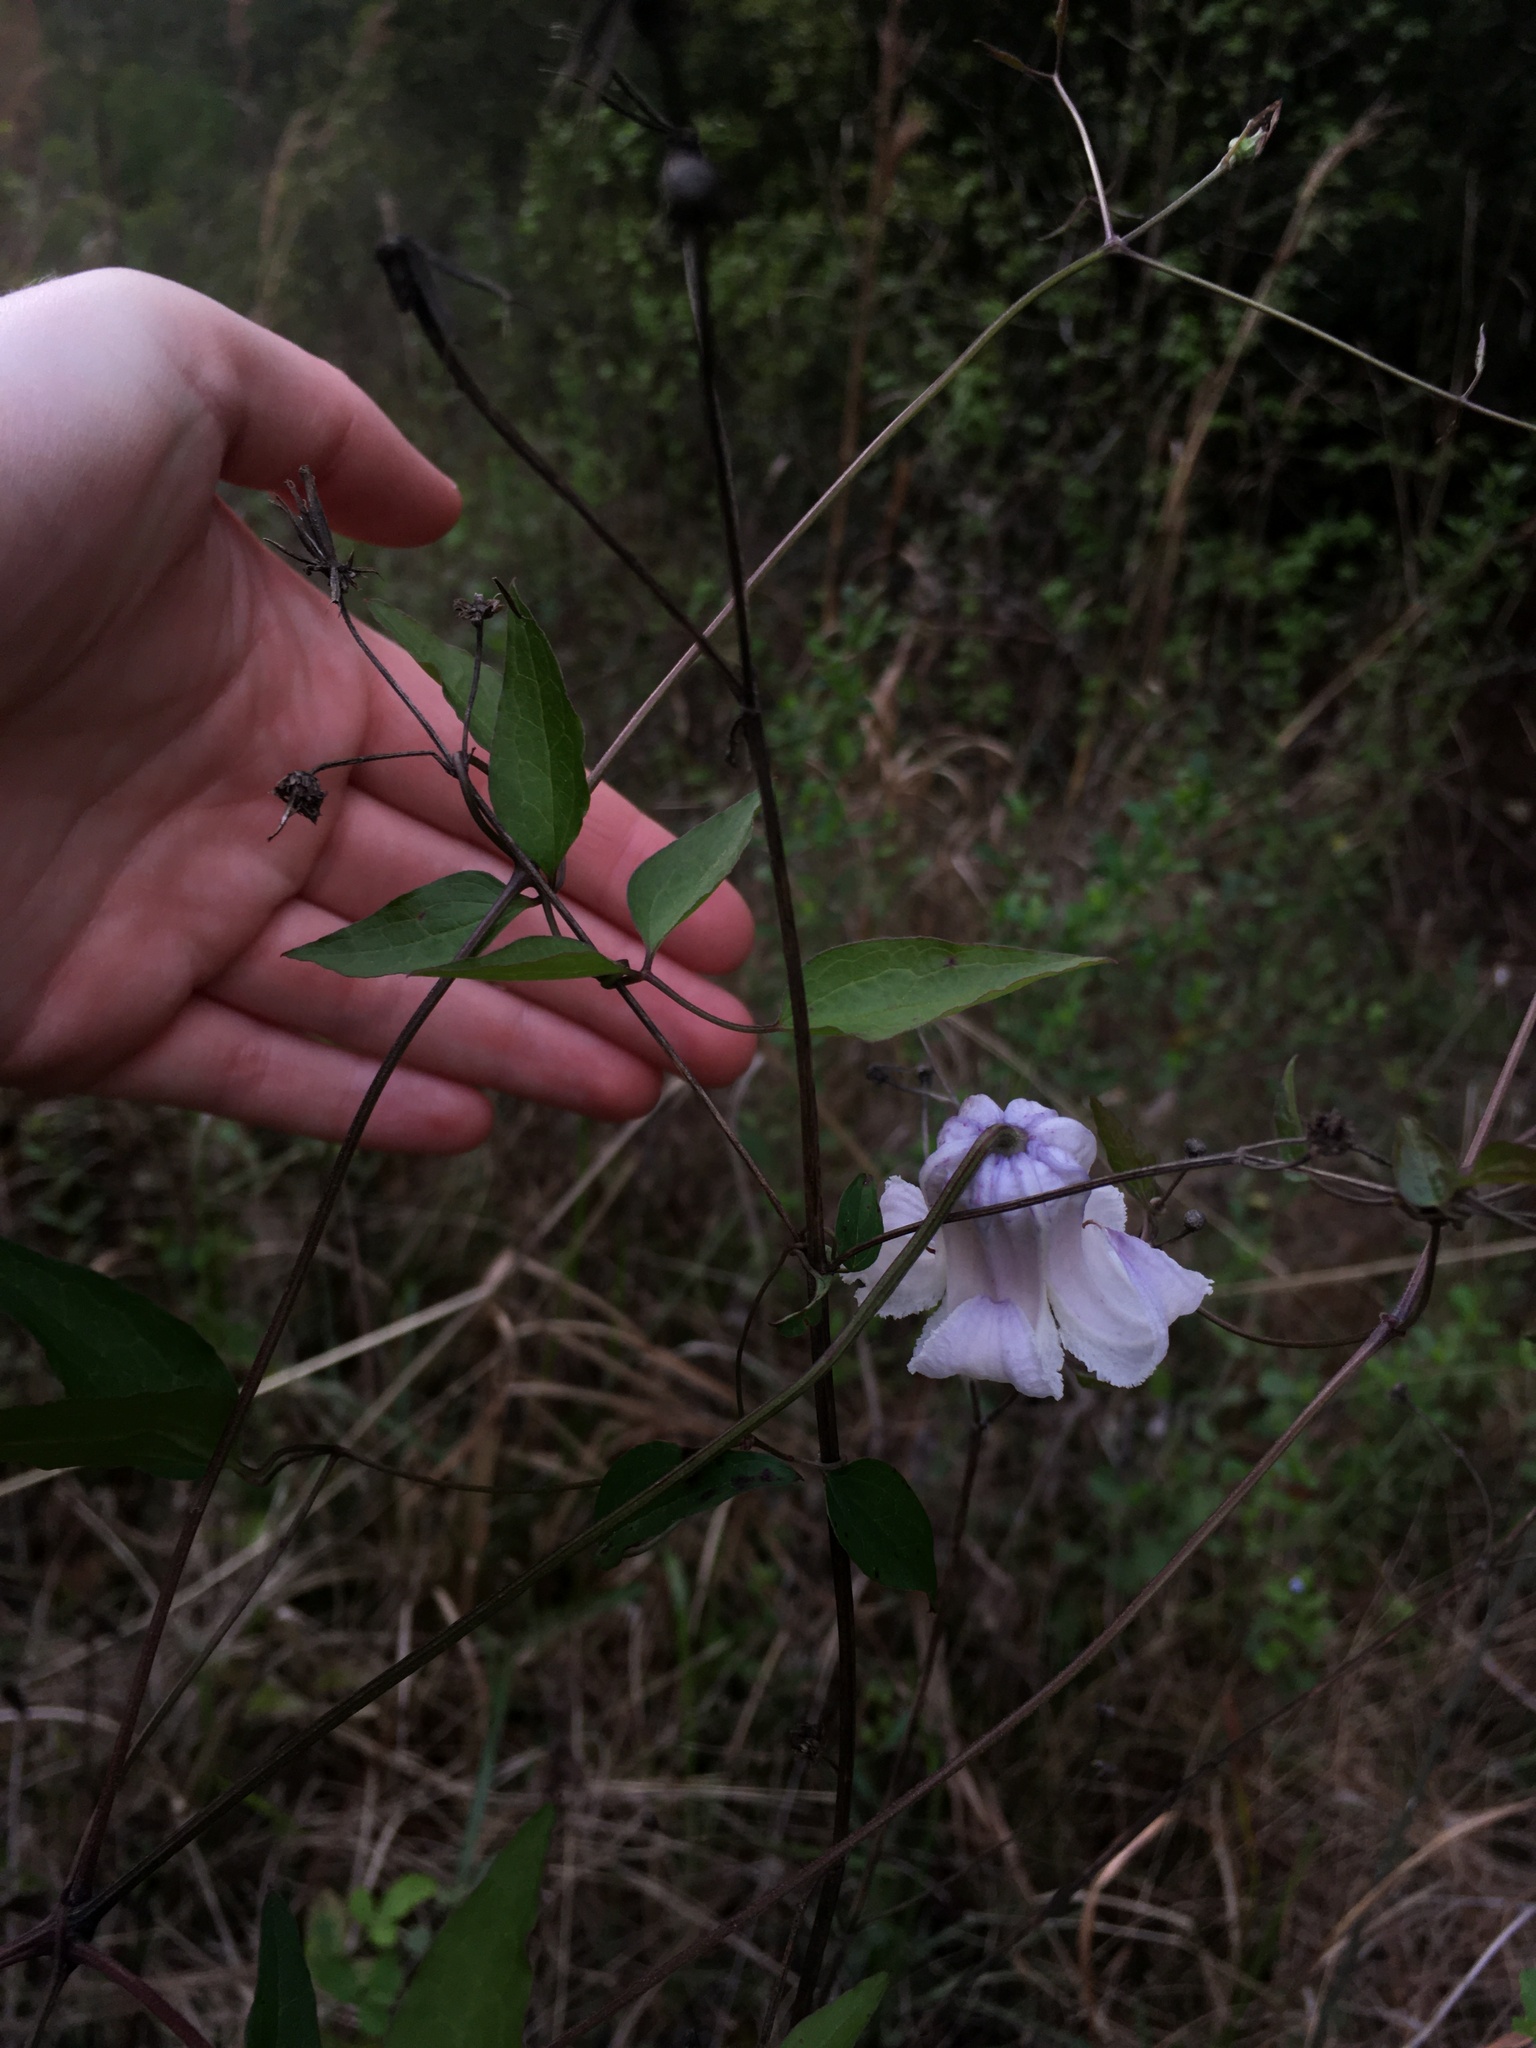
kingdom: Plantae
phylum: Tracheophyta
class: Magnoliopsida
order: Ranunculales
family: Ranunculaceae
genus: Clematis
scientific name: Clematis crispa
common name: Curly clematis
